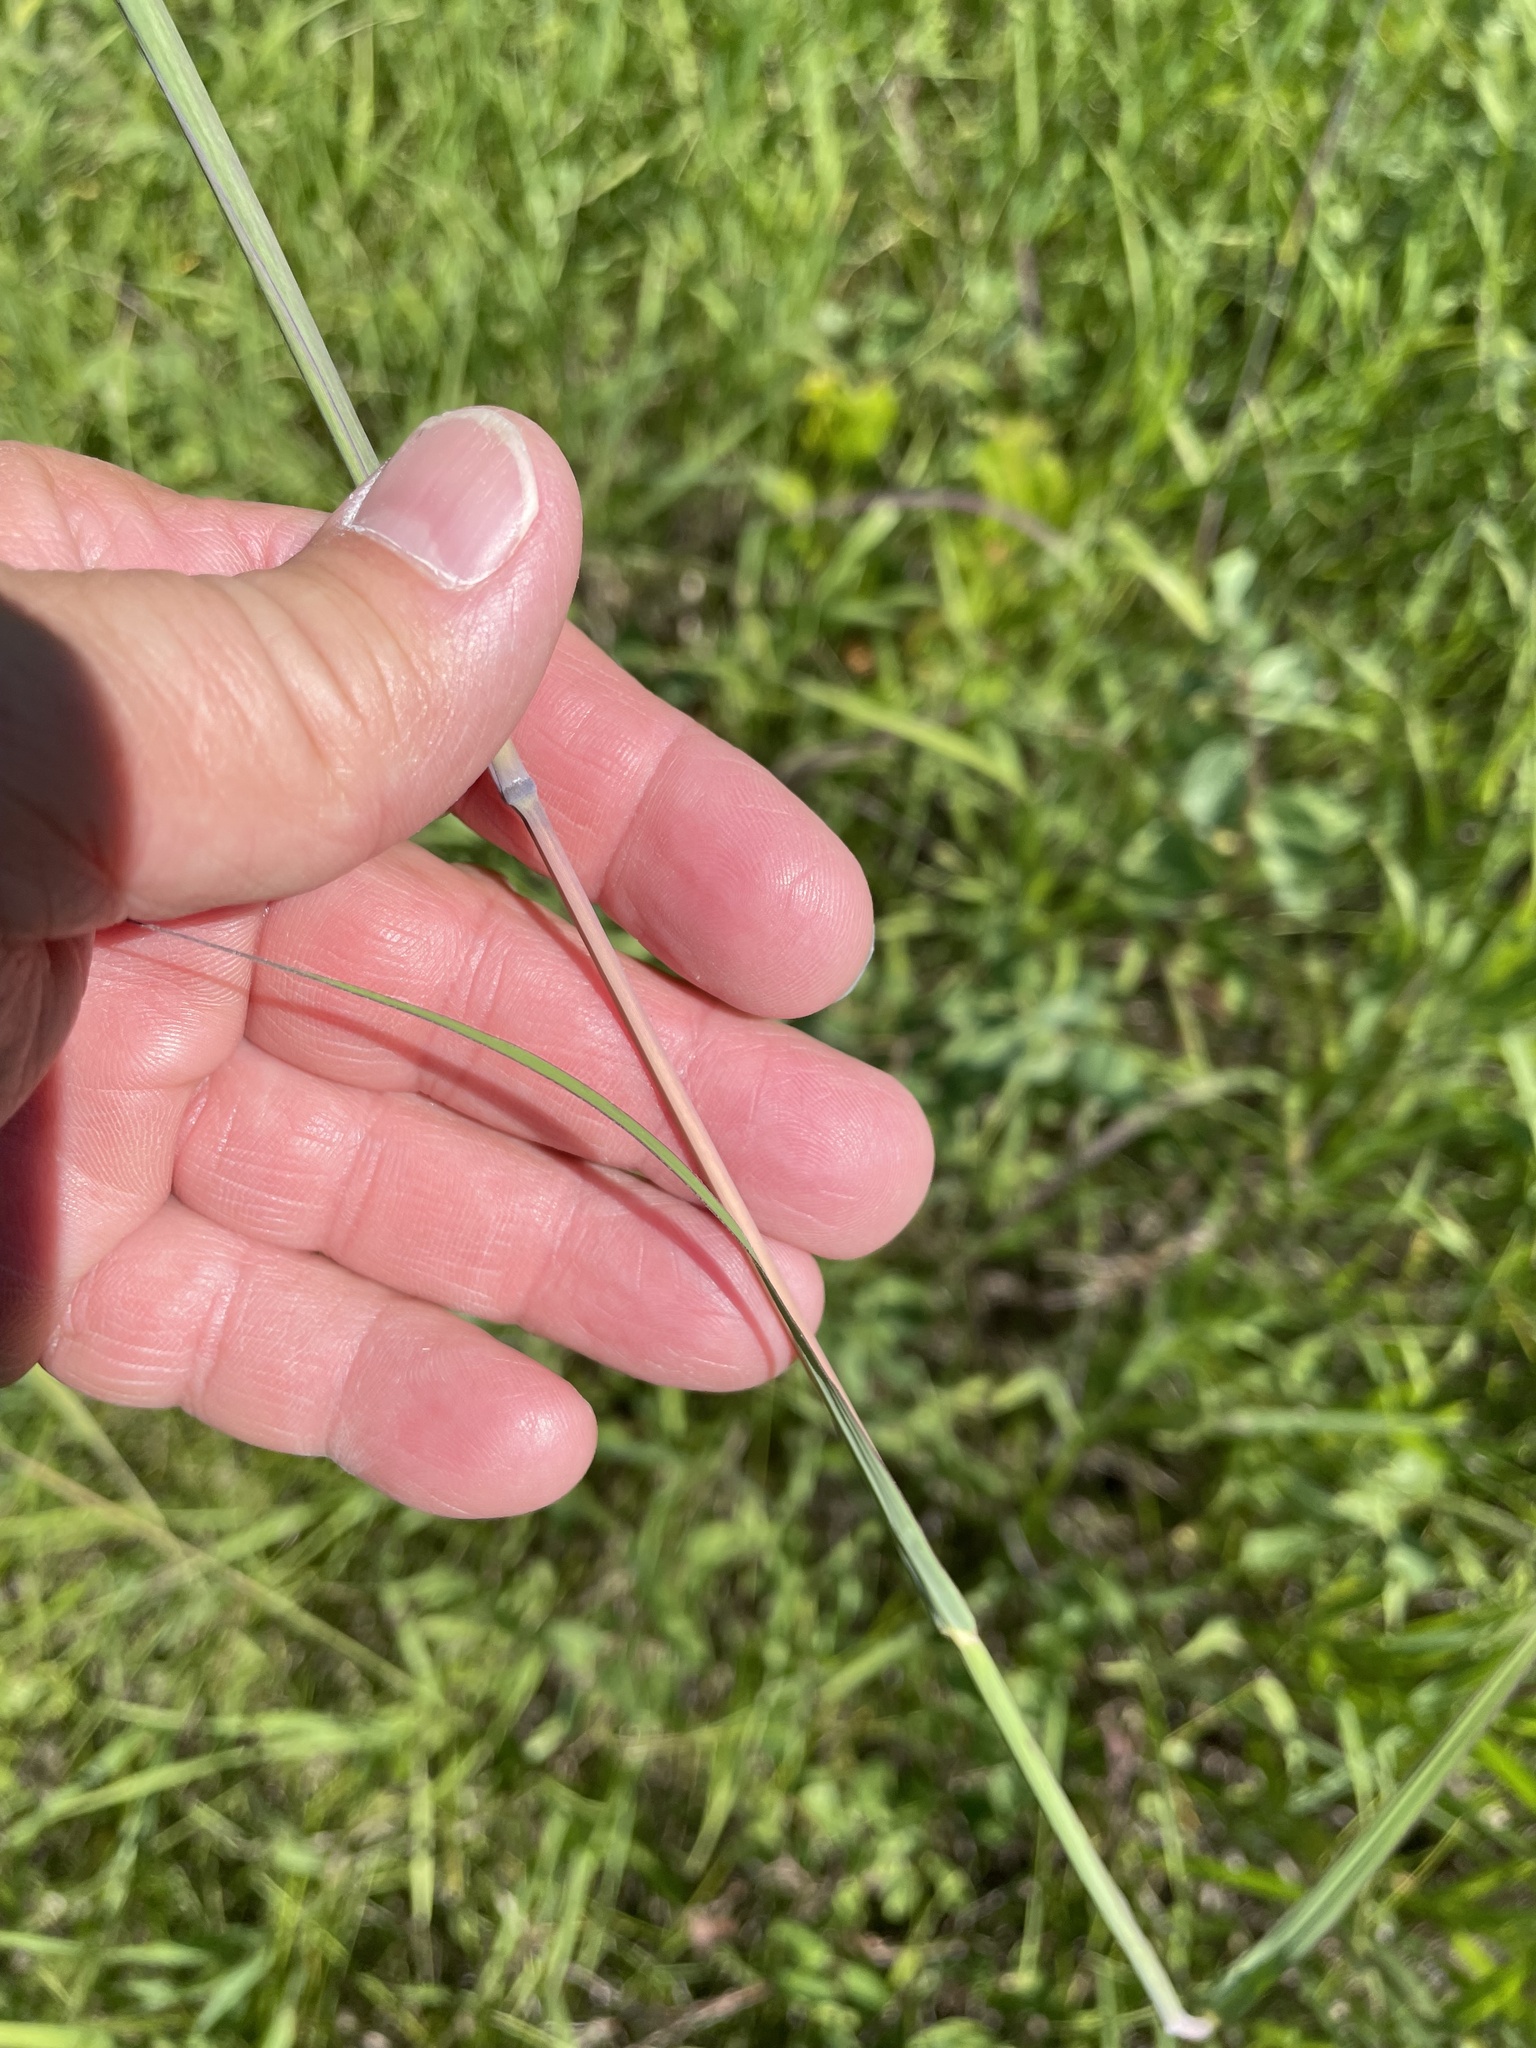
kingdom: Plantae
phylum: Tracheophyta
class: Liliopsida
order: Poales
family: Poaceae
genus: Andropogon
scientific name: Andropogon gerardi
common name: Big bluestem
